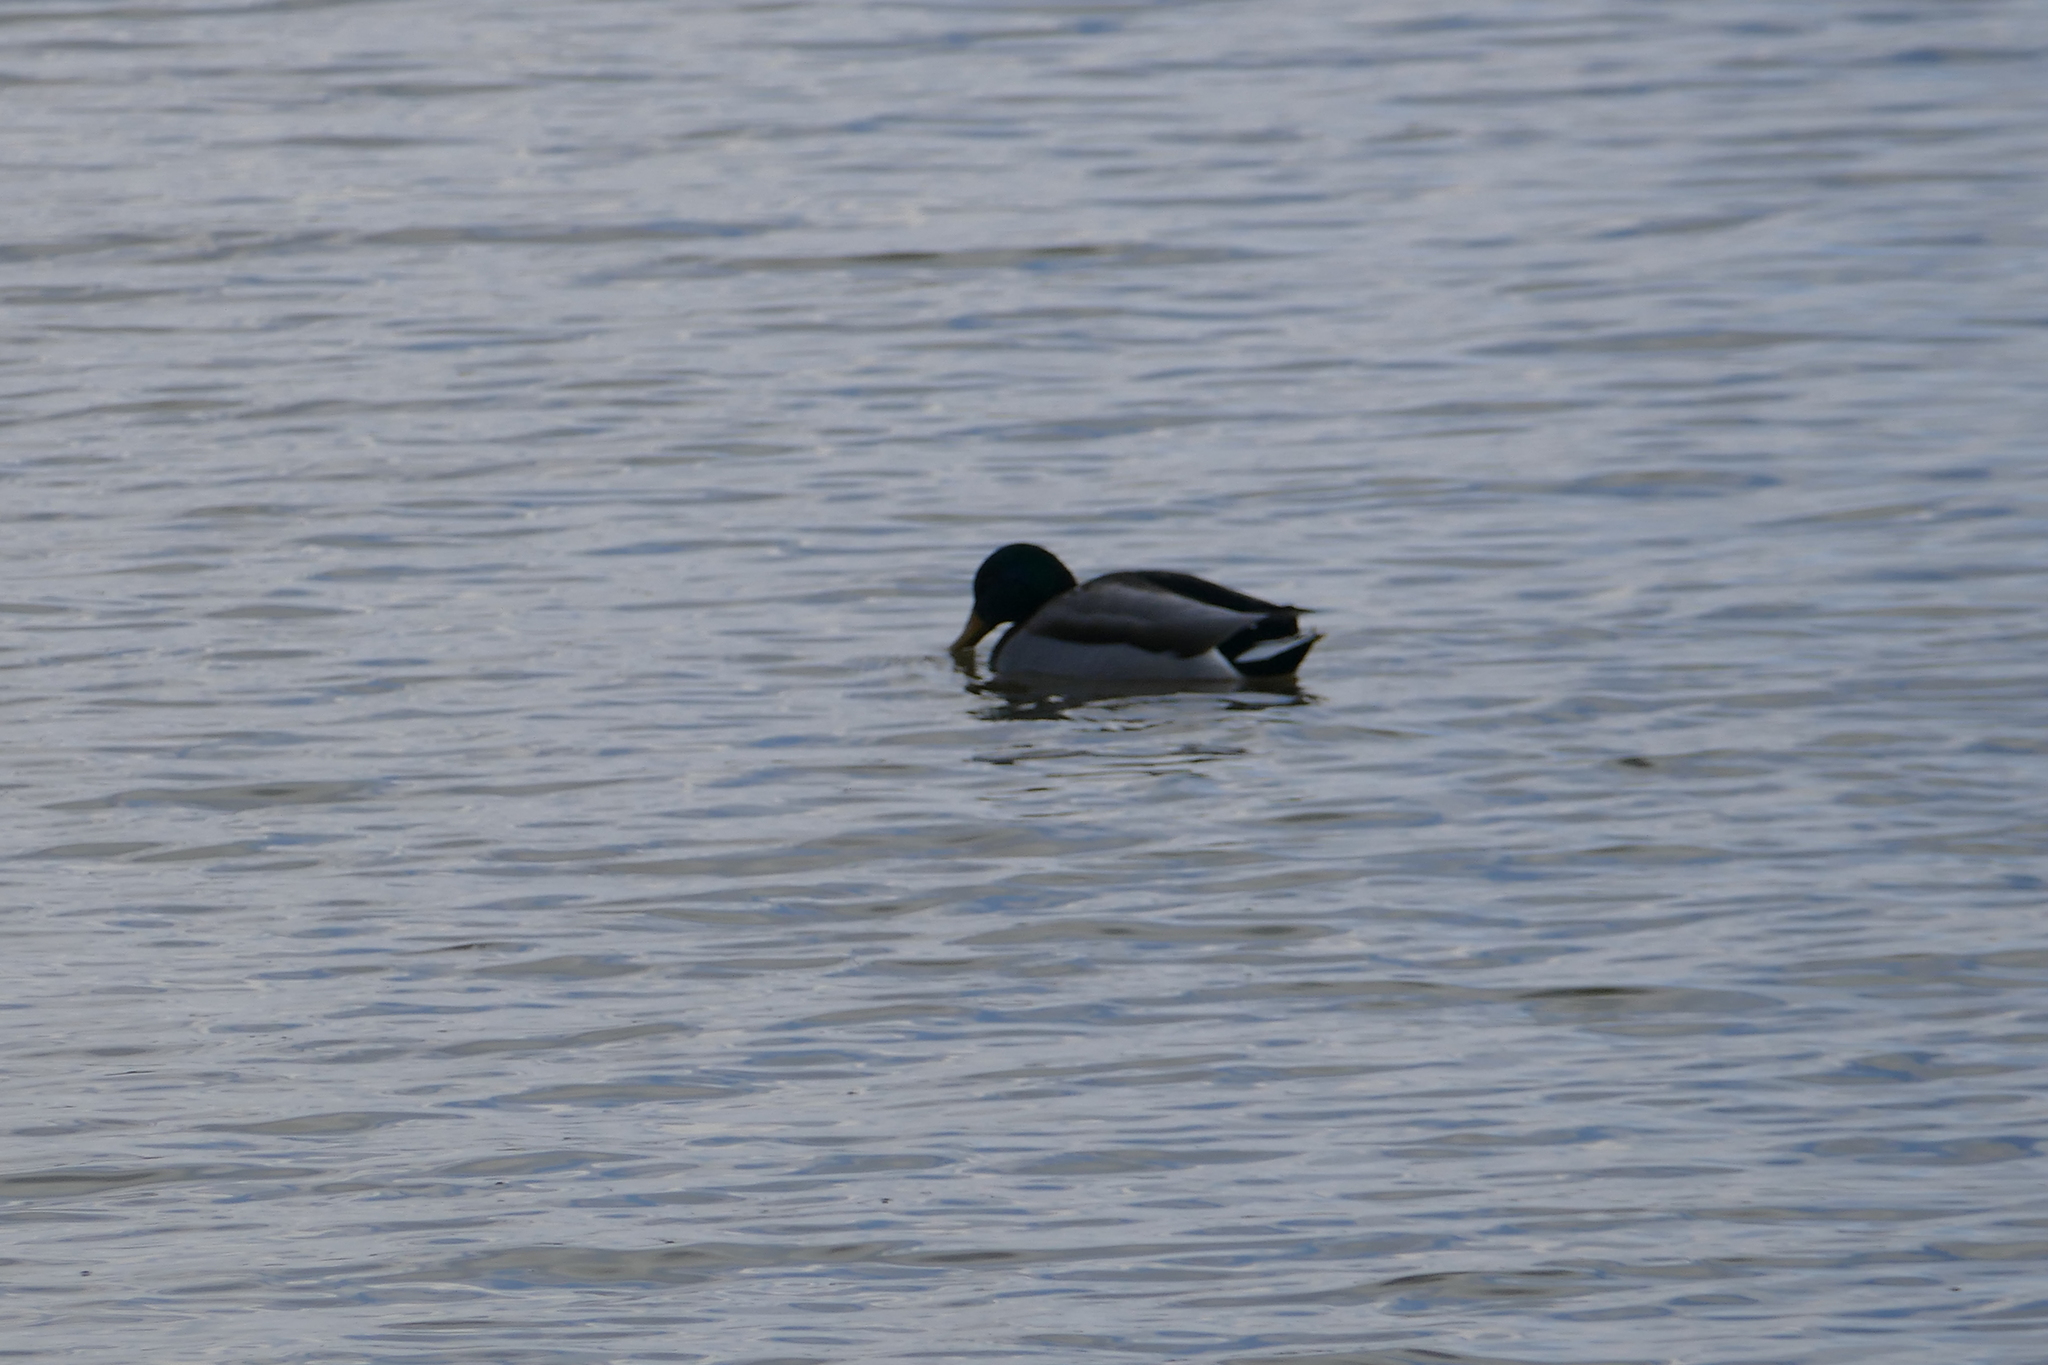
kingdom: Animalia
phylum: Chordata
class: Aves
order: Anseriformes
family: Anatidae
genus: Anas
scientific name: Anas platyrhynchos
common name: Mallard
